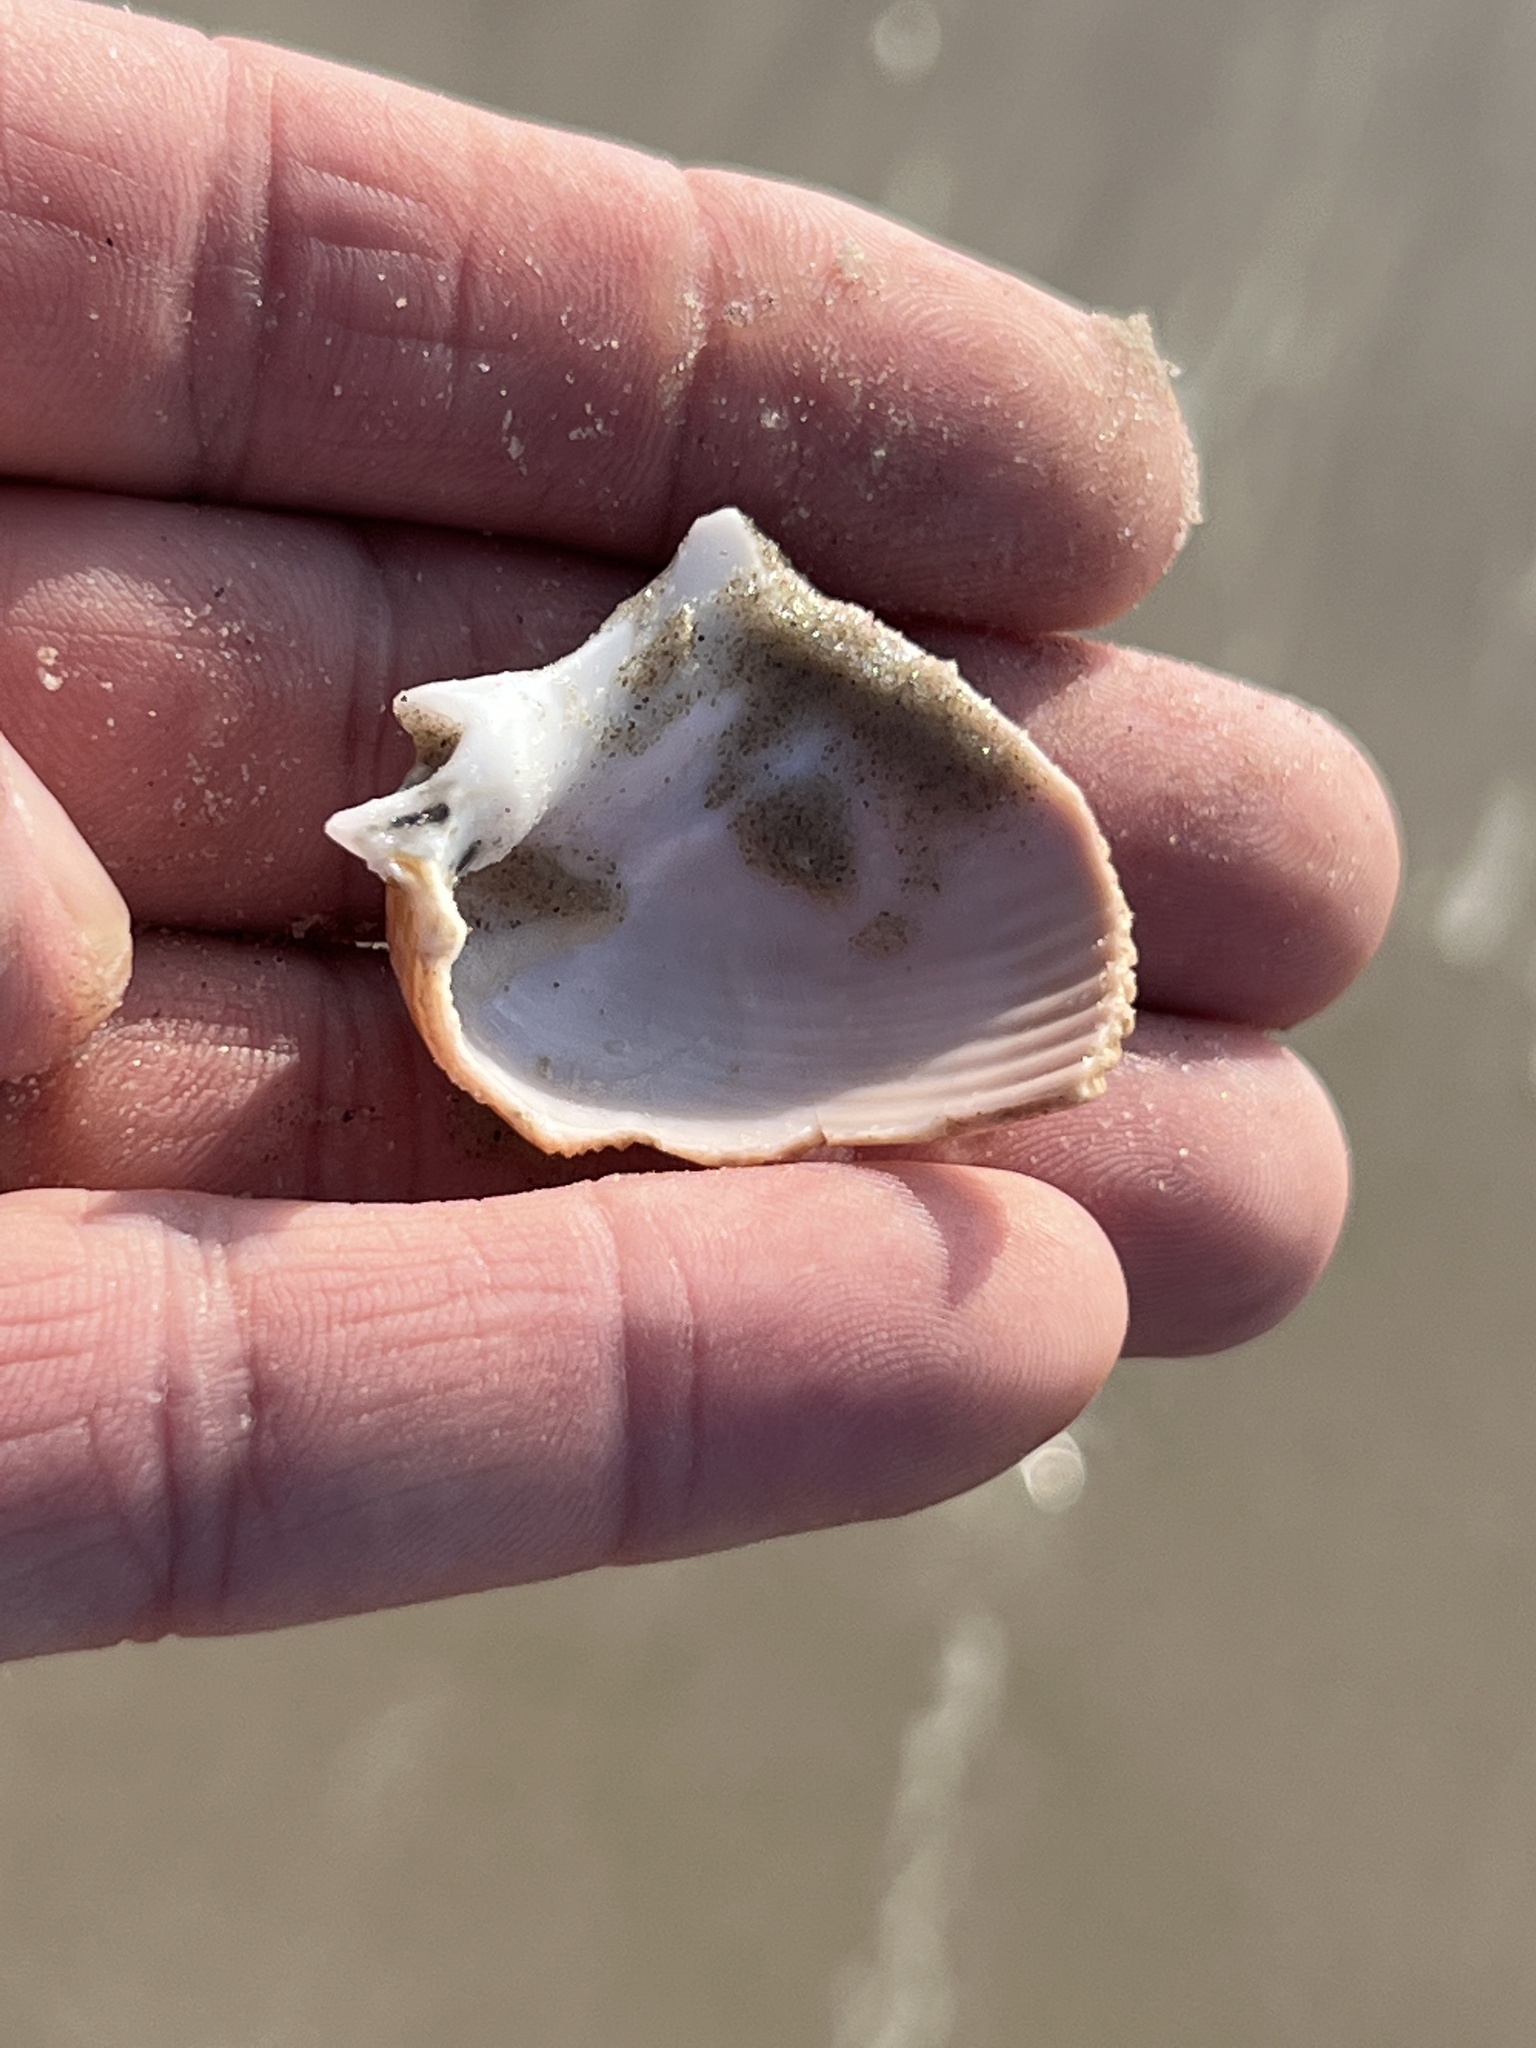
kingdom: Animalia
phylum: Mollusca
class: Bivalvia
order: Cardiida
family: Cardiidae
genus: Dinocardium
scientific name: Dinocardium robustum
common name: Atlantic giant cockle
